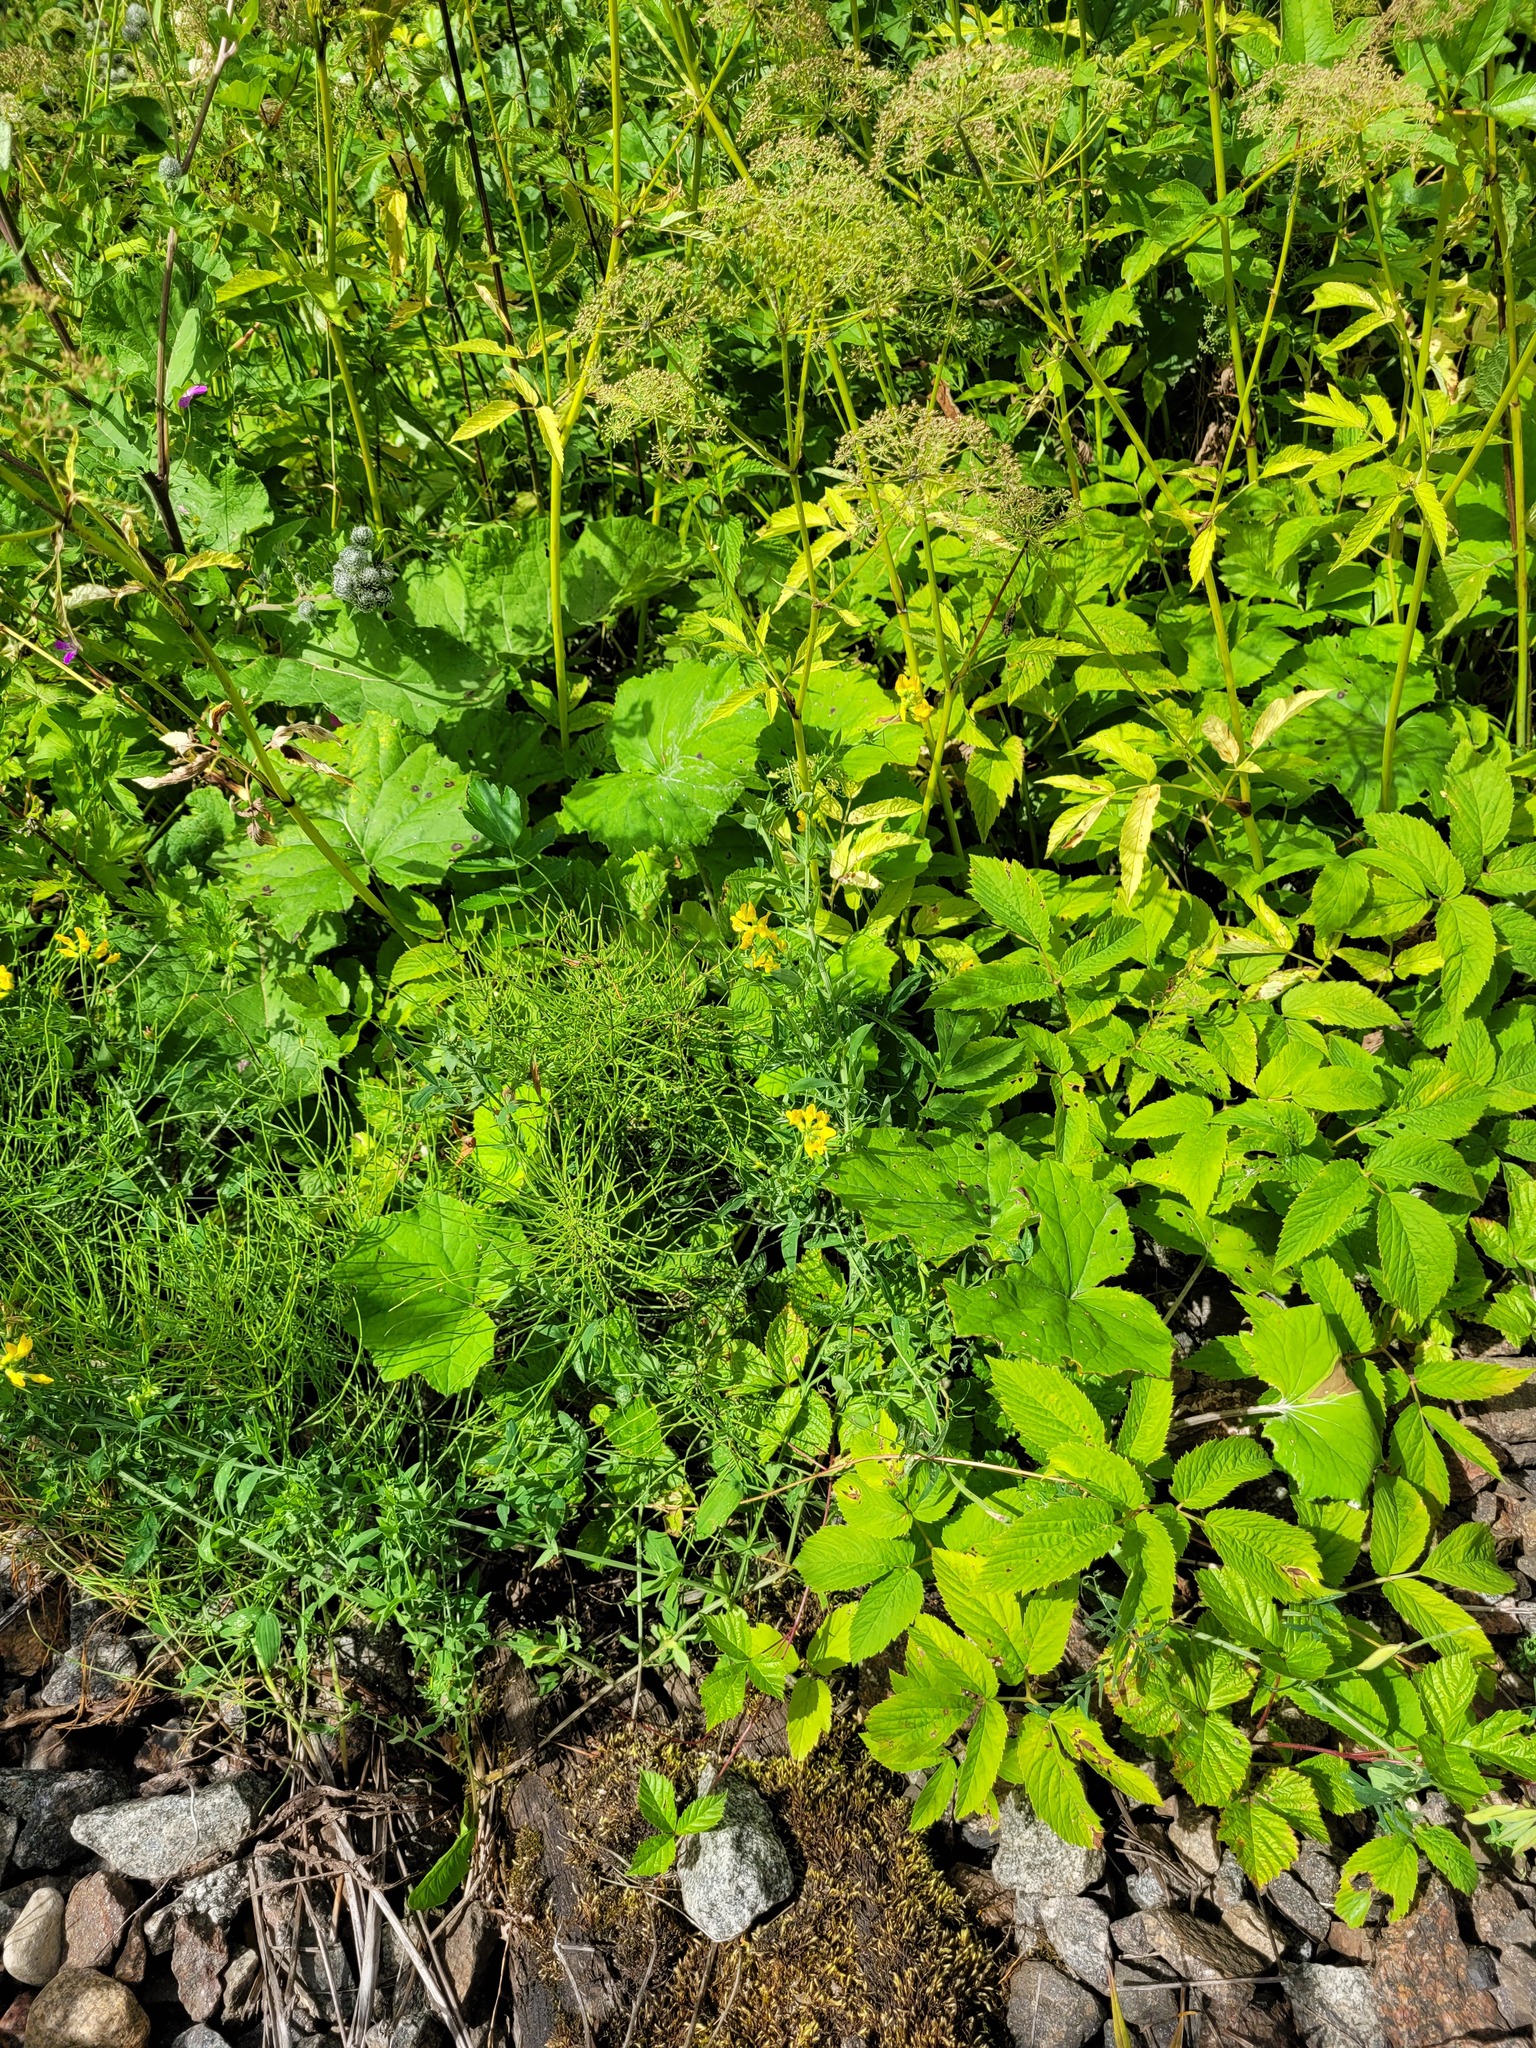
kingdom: Plantae
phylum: Tracheophyta
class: Magnoliopsida
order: Fabales
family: Fabaceae
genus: Lathyrus
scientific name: Lathyrus pratensis
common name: Meadow vetchling
